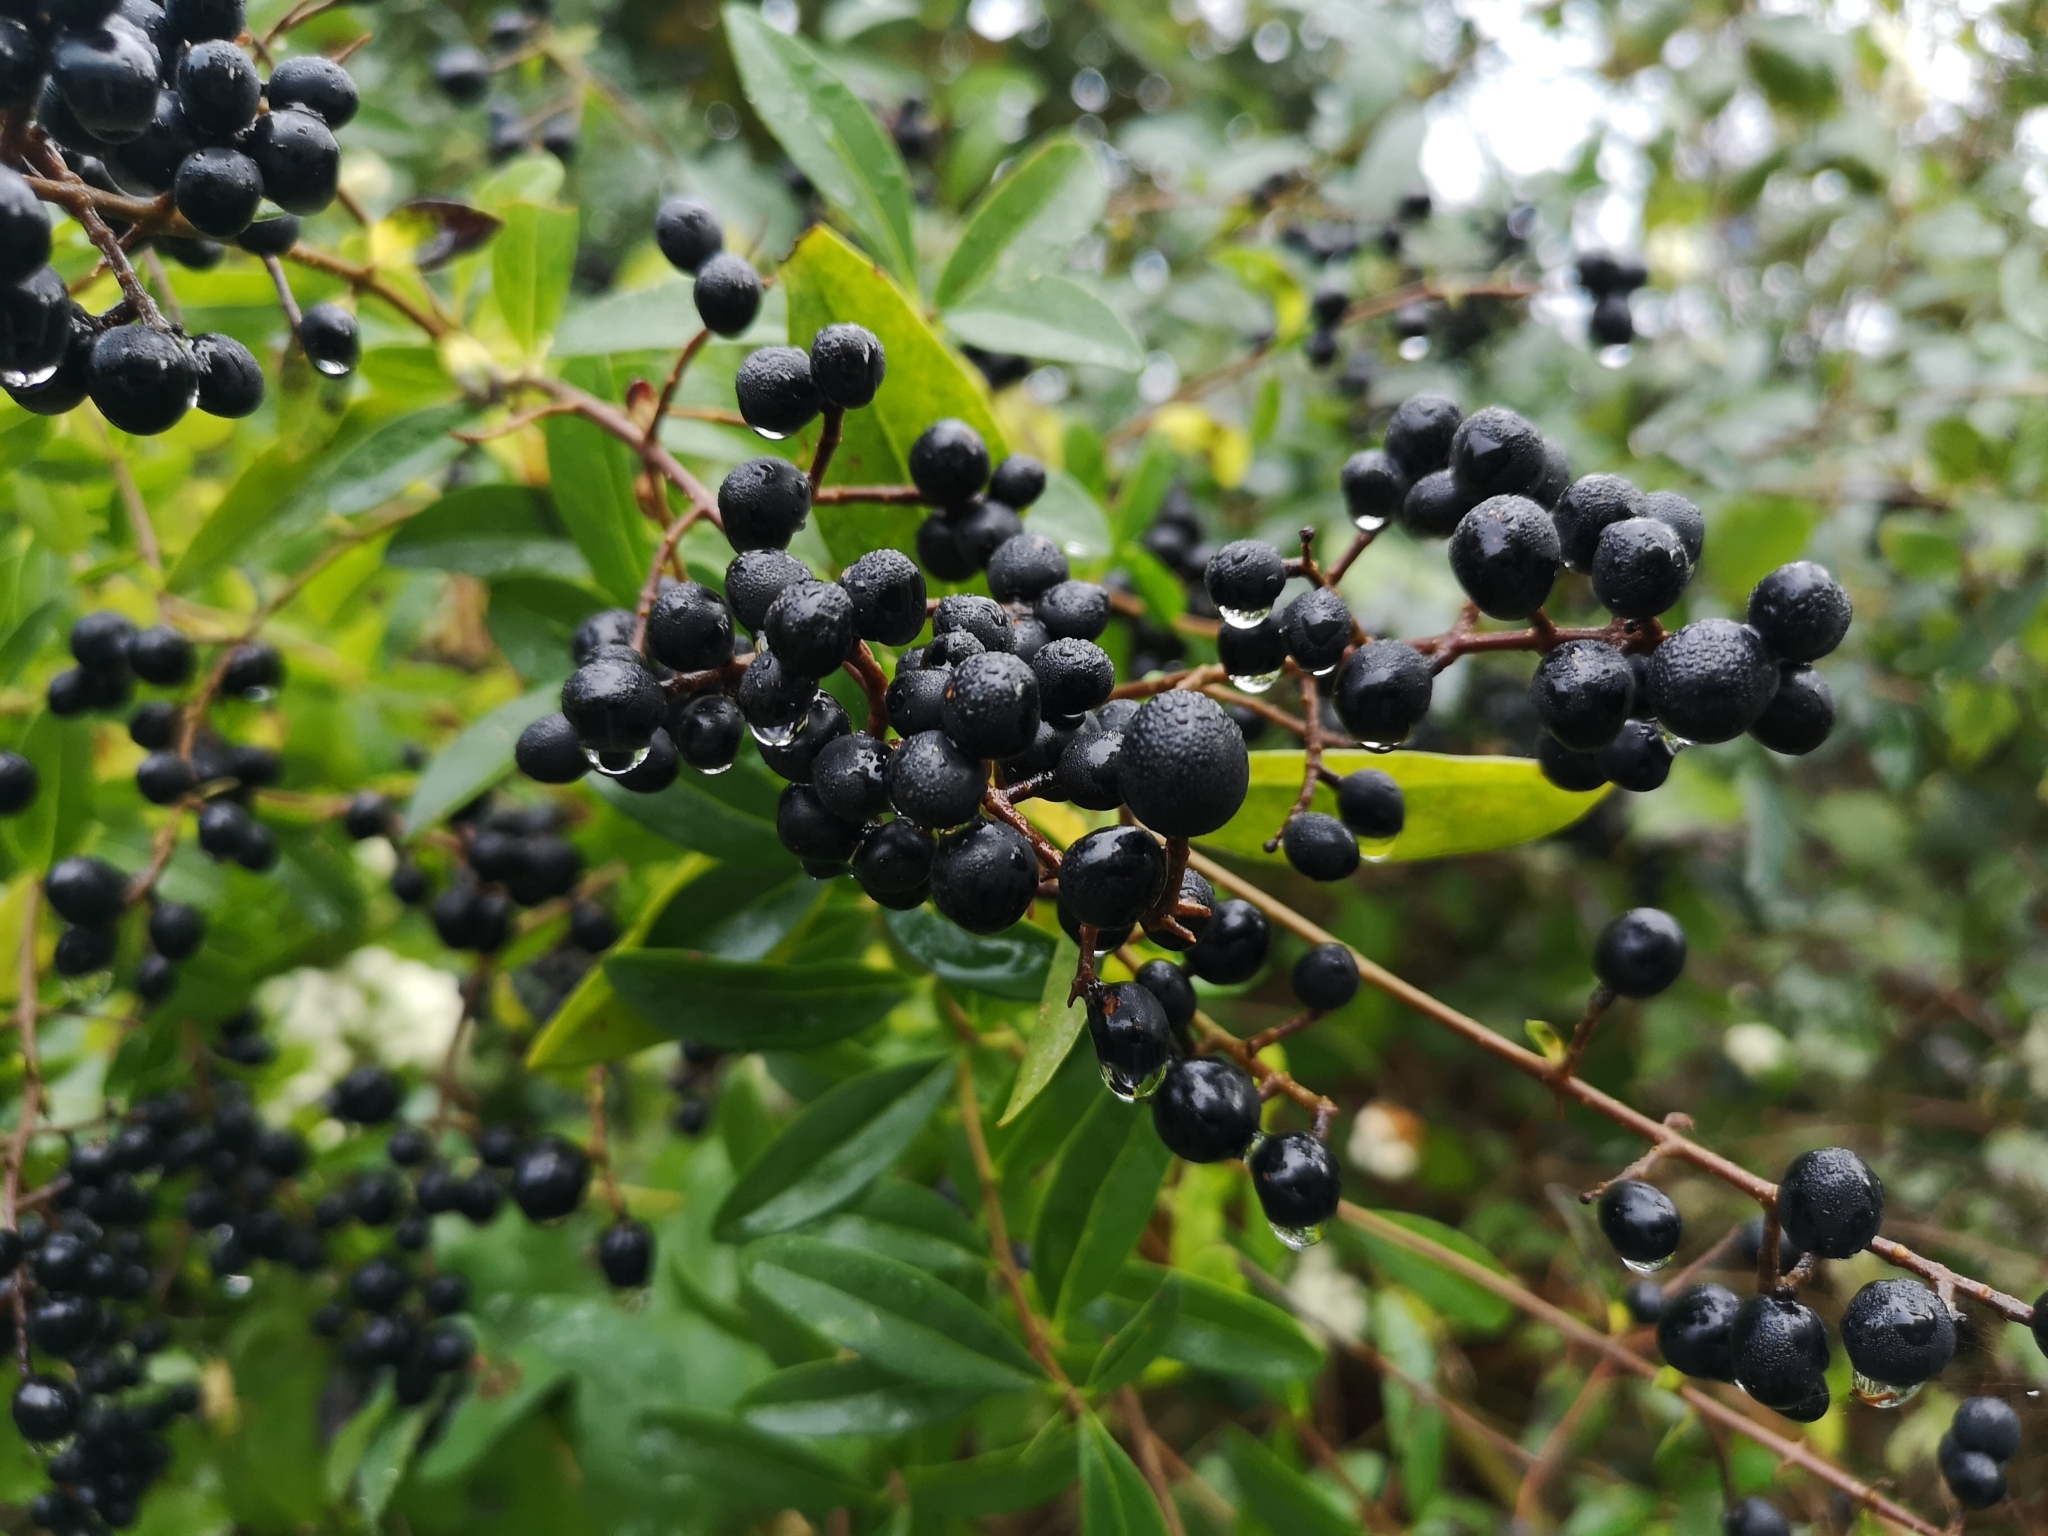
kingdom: Plantae
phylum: Tracheophyta
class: Magnoliopsida
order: Lamiales
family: Oleaceae
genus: Ligustrum
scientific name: Ligustrum vulgare
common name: Wild privet
